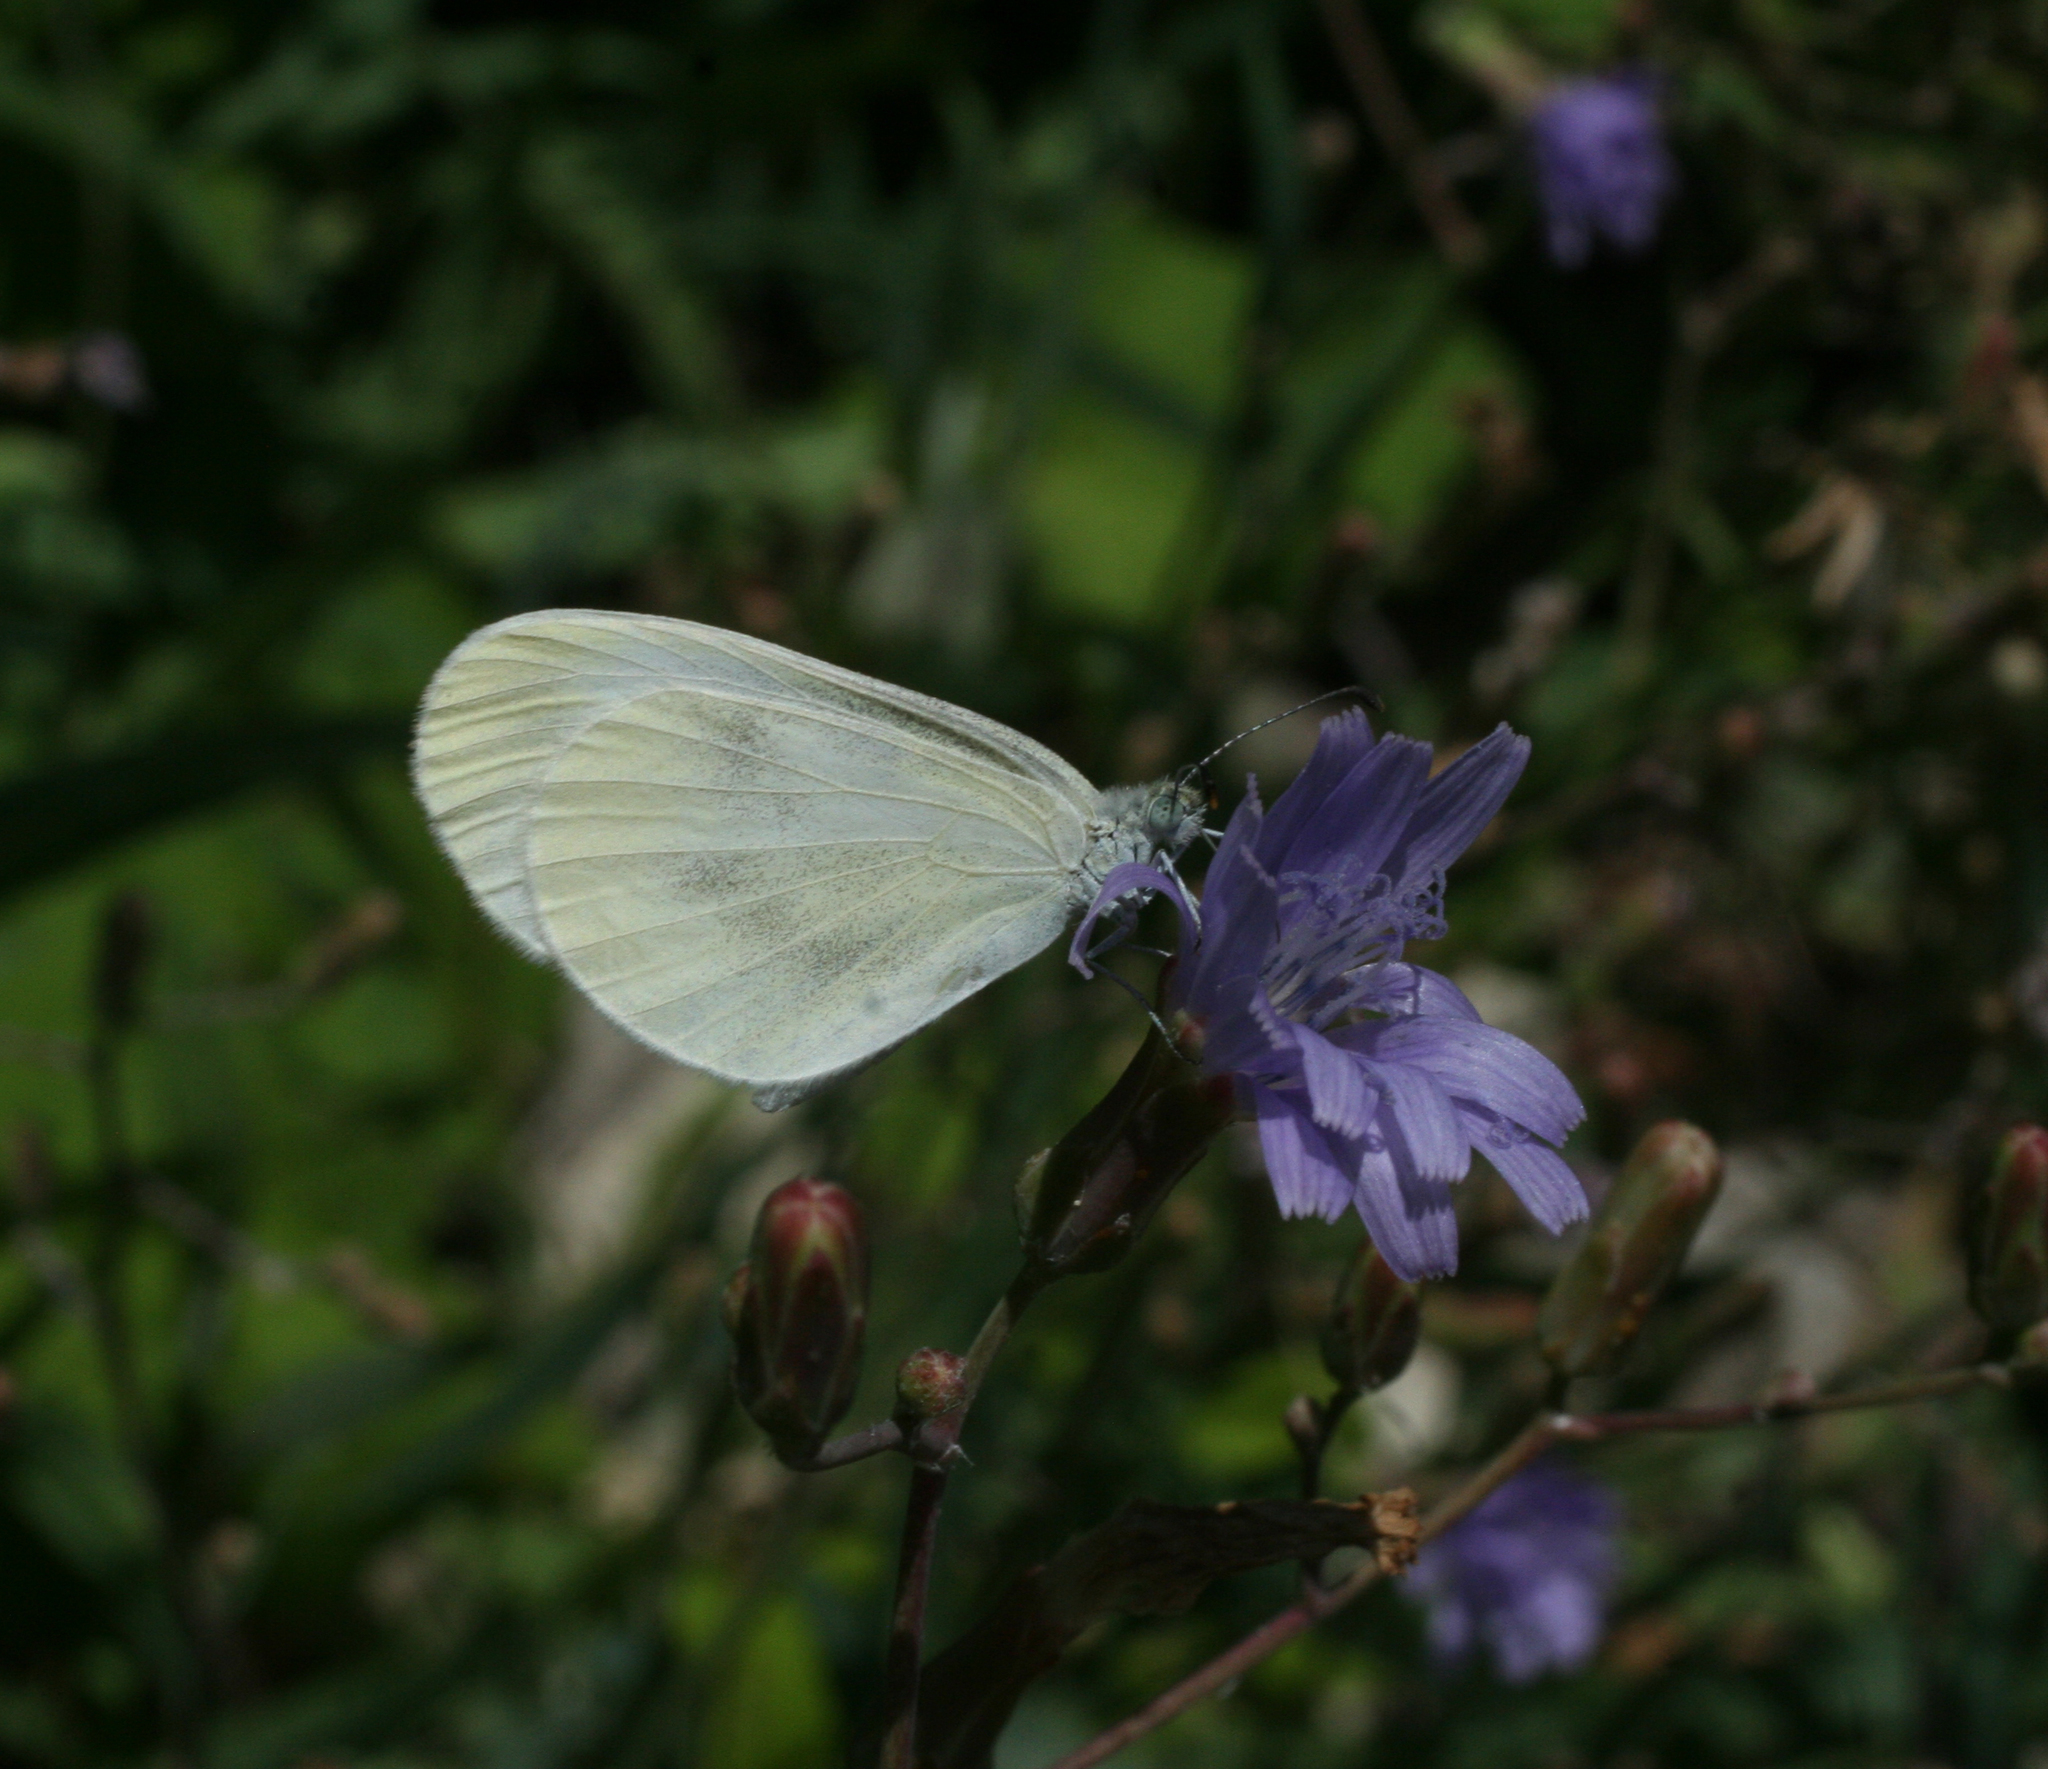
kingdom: Plantae
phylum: Tracheophyta
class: Magnoliopsida
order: Asterales
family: Asteraceae
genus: Lactuca
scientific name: Lactuca tatarica
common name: Blue lettuce
